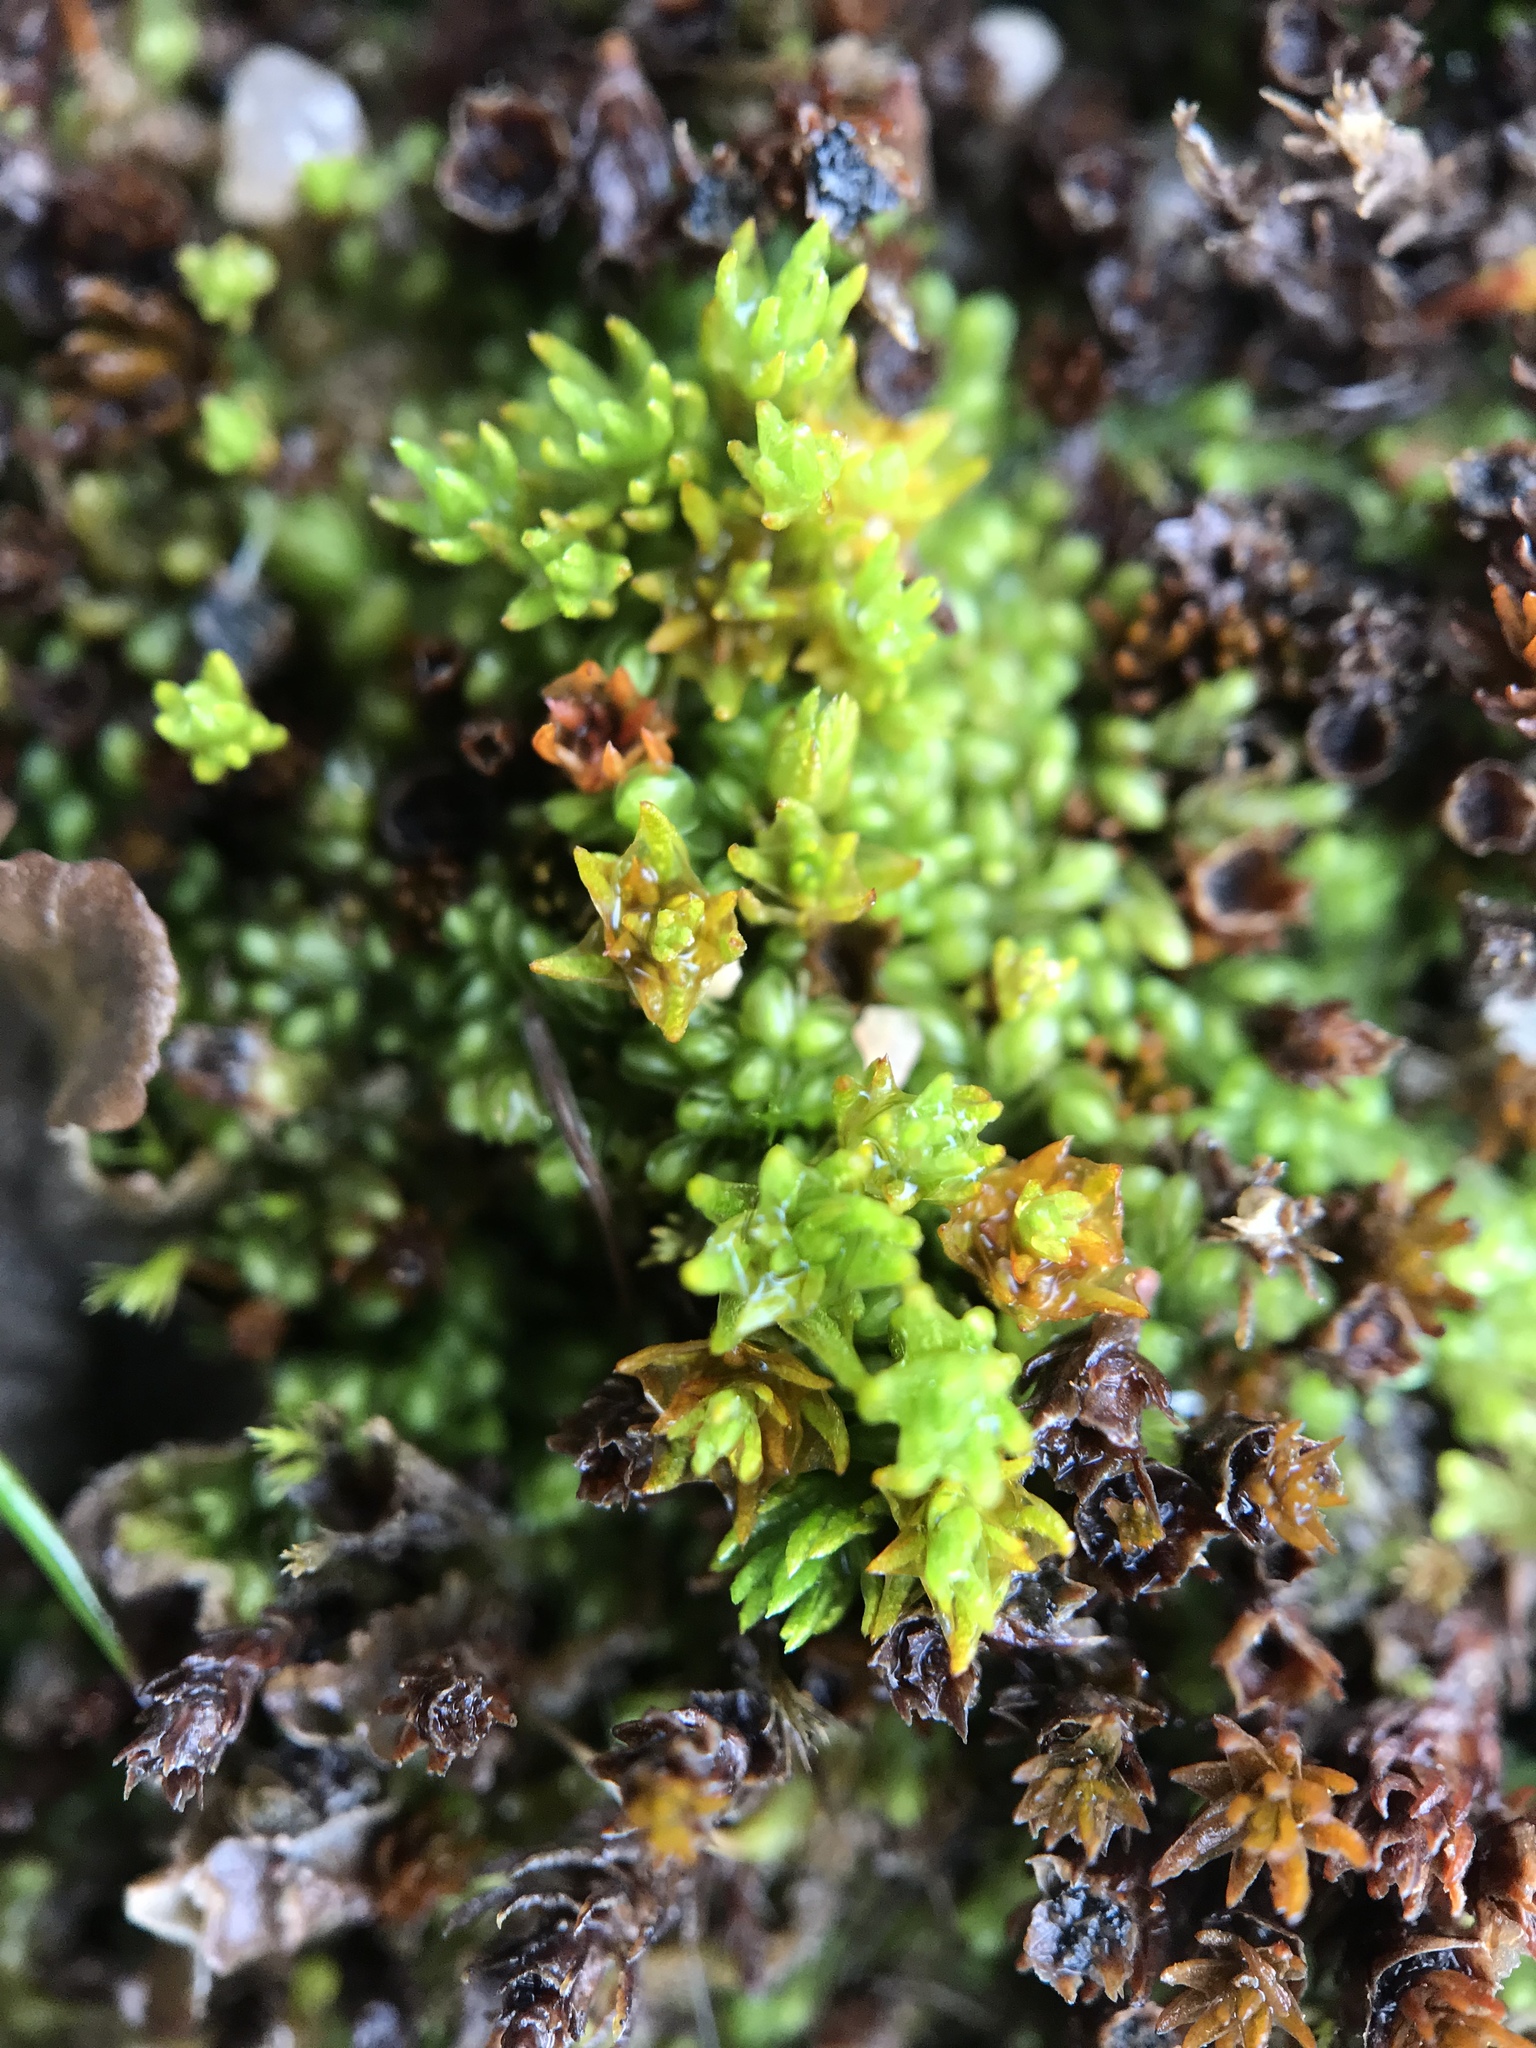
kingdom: Plantae
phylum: Bryophyta
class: Polytrichopsida
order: Polytrichales
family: Polytrichaceae
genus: Oligotrichum
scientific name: Oligotrichum hercynicum
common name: Hercynian hair moss
